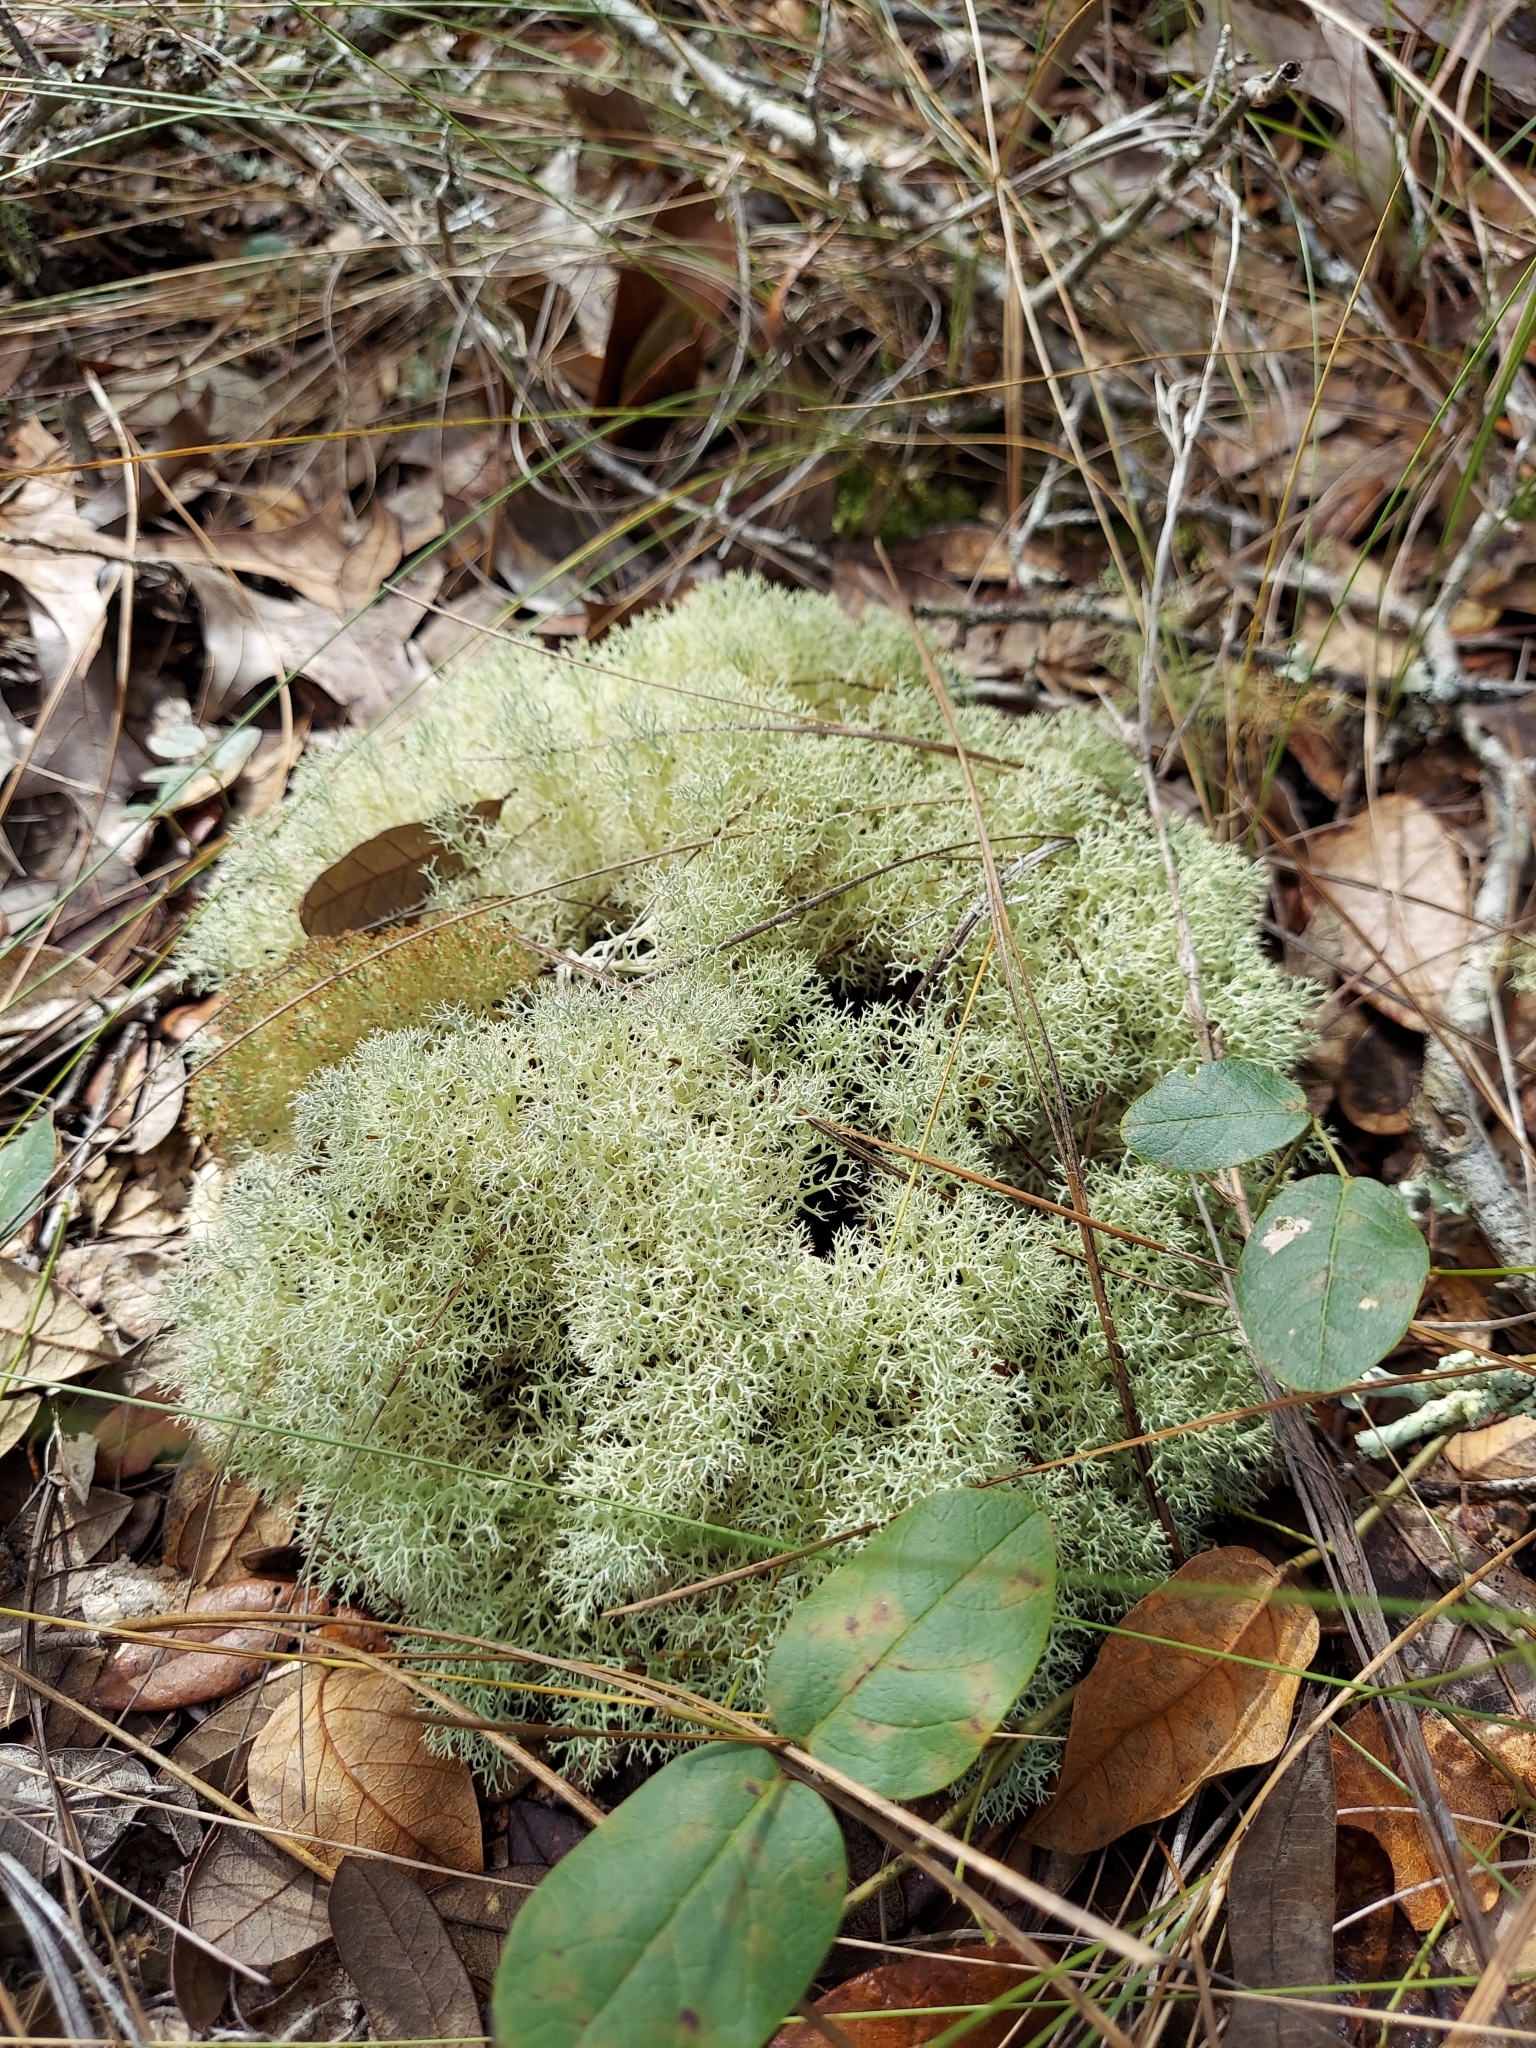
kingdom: Fungi
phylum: Ascomycota
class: Lecanoromycetes
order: Lecanorales
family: Cladoniaceae
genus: Cladonia
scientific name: Cladonia subtenuis
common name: Dixie reindeer lichen
